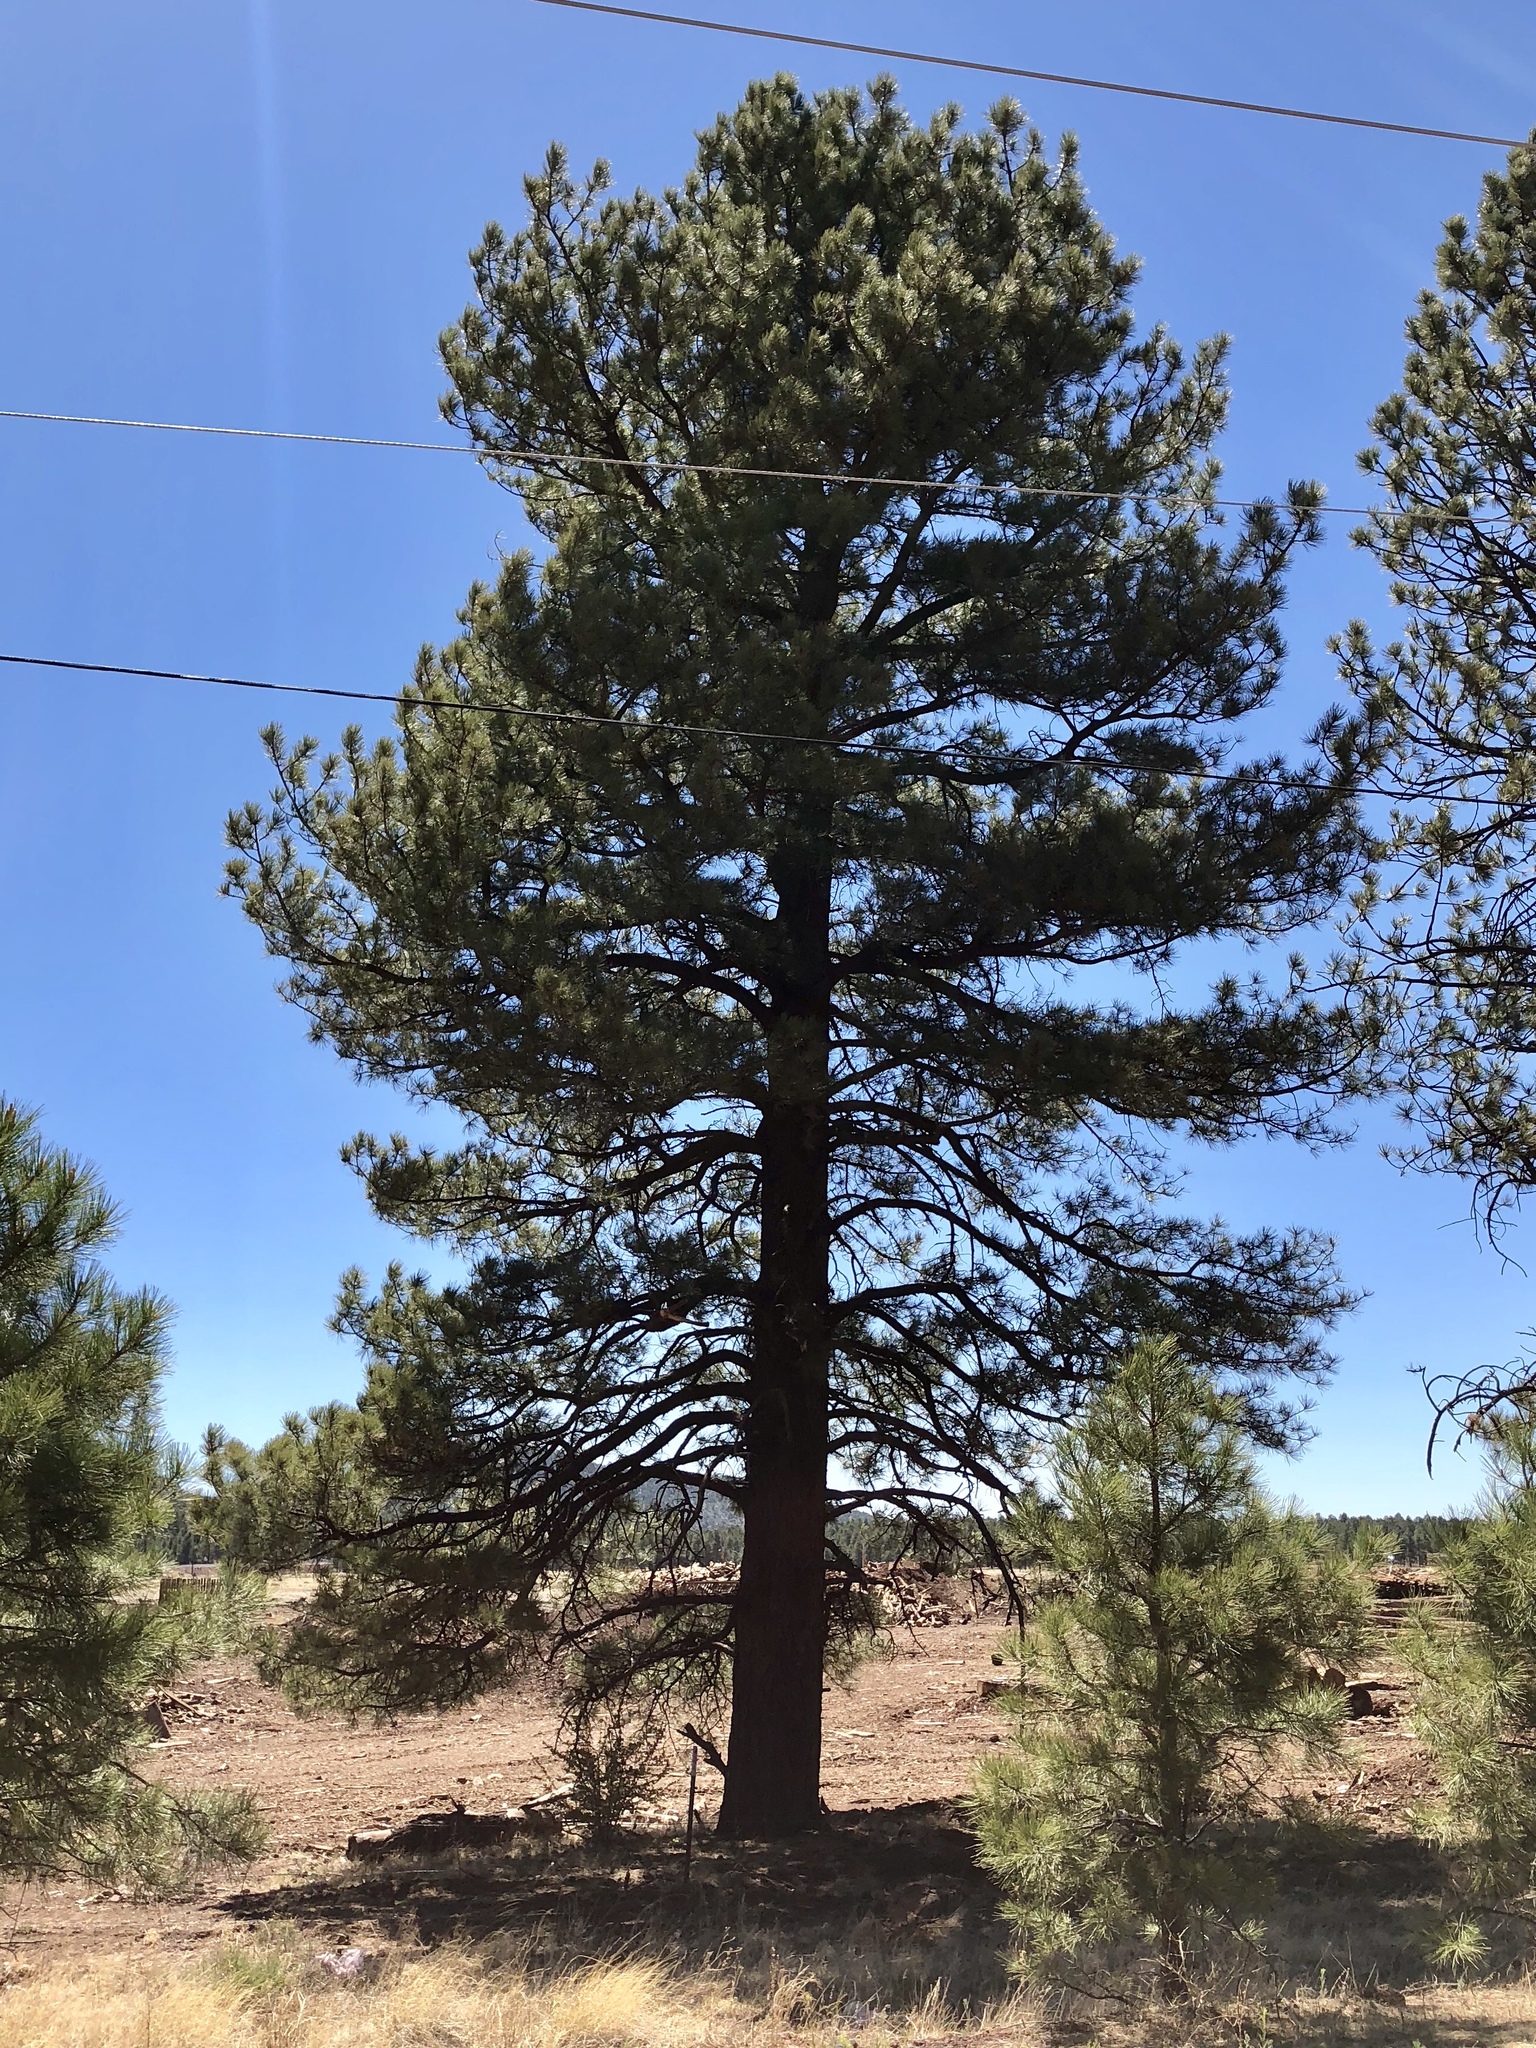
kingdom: Plantae
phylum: Tracheophyta
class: Pinopsida
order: Pinales
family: Pinaceae
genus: Pinus
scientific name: Pinus ponderosa
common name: Western yellow-pine
